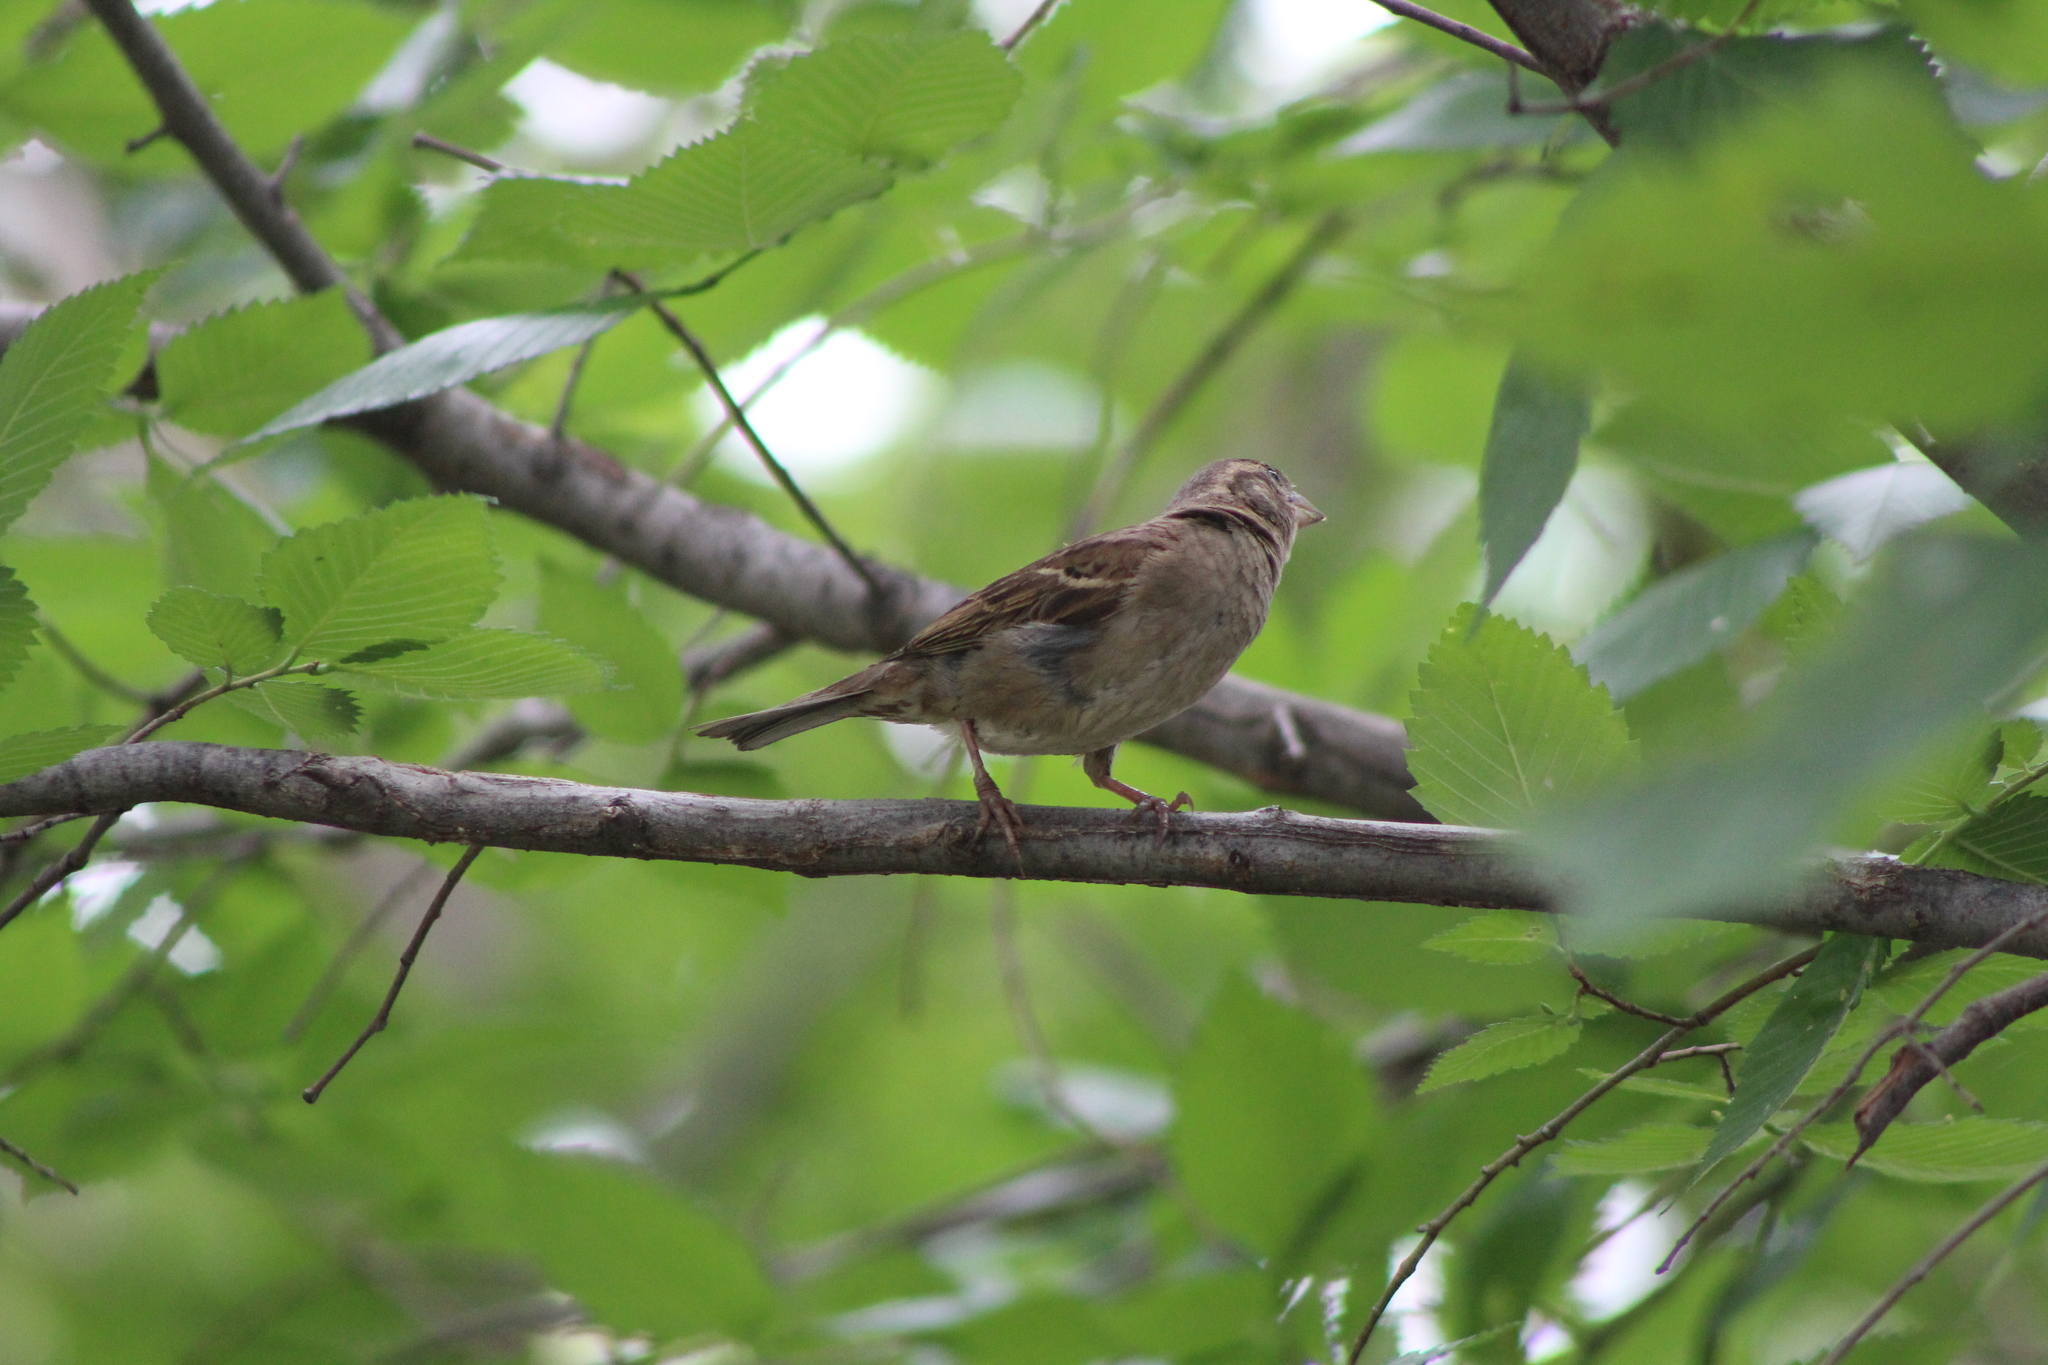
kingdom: Animalia
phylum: Chordata
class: Aves
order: Passeriformes
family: Passeridae
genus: Passer
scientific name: Passer domesticus
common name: House sparrow
